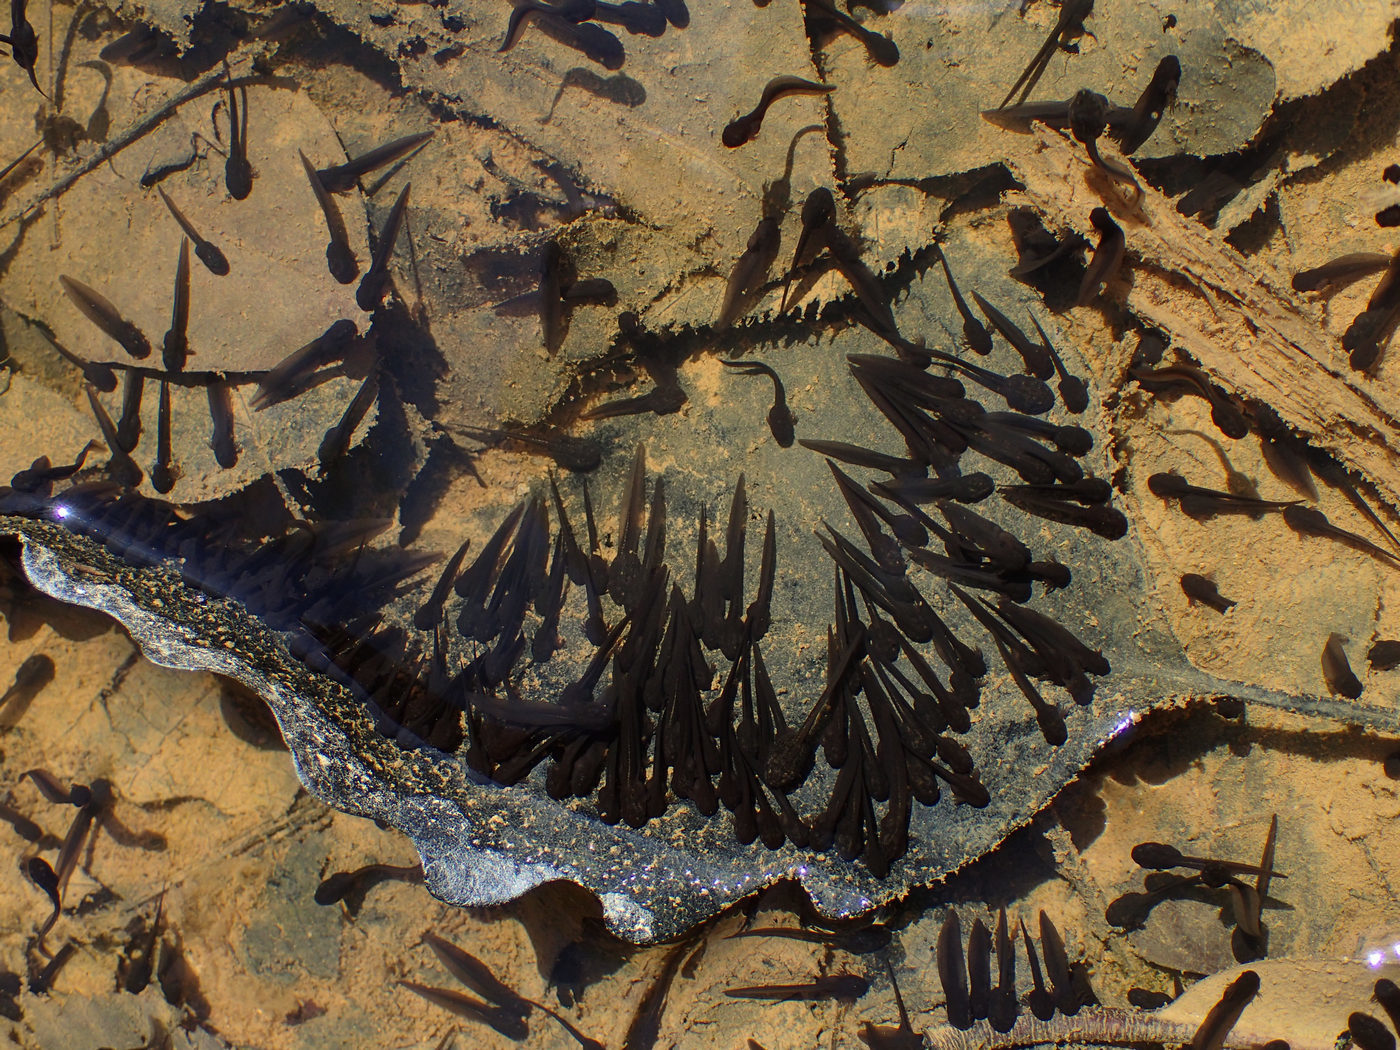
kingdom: Animalia
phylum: Chordata
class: Amphibia
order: Anura
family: Ranidae
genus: Lithobates
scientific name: Lithobates sylvaticus
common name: Wood frog
